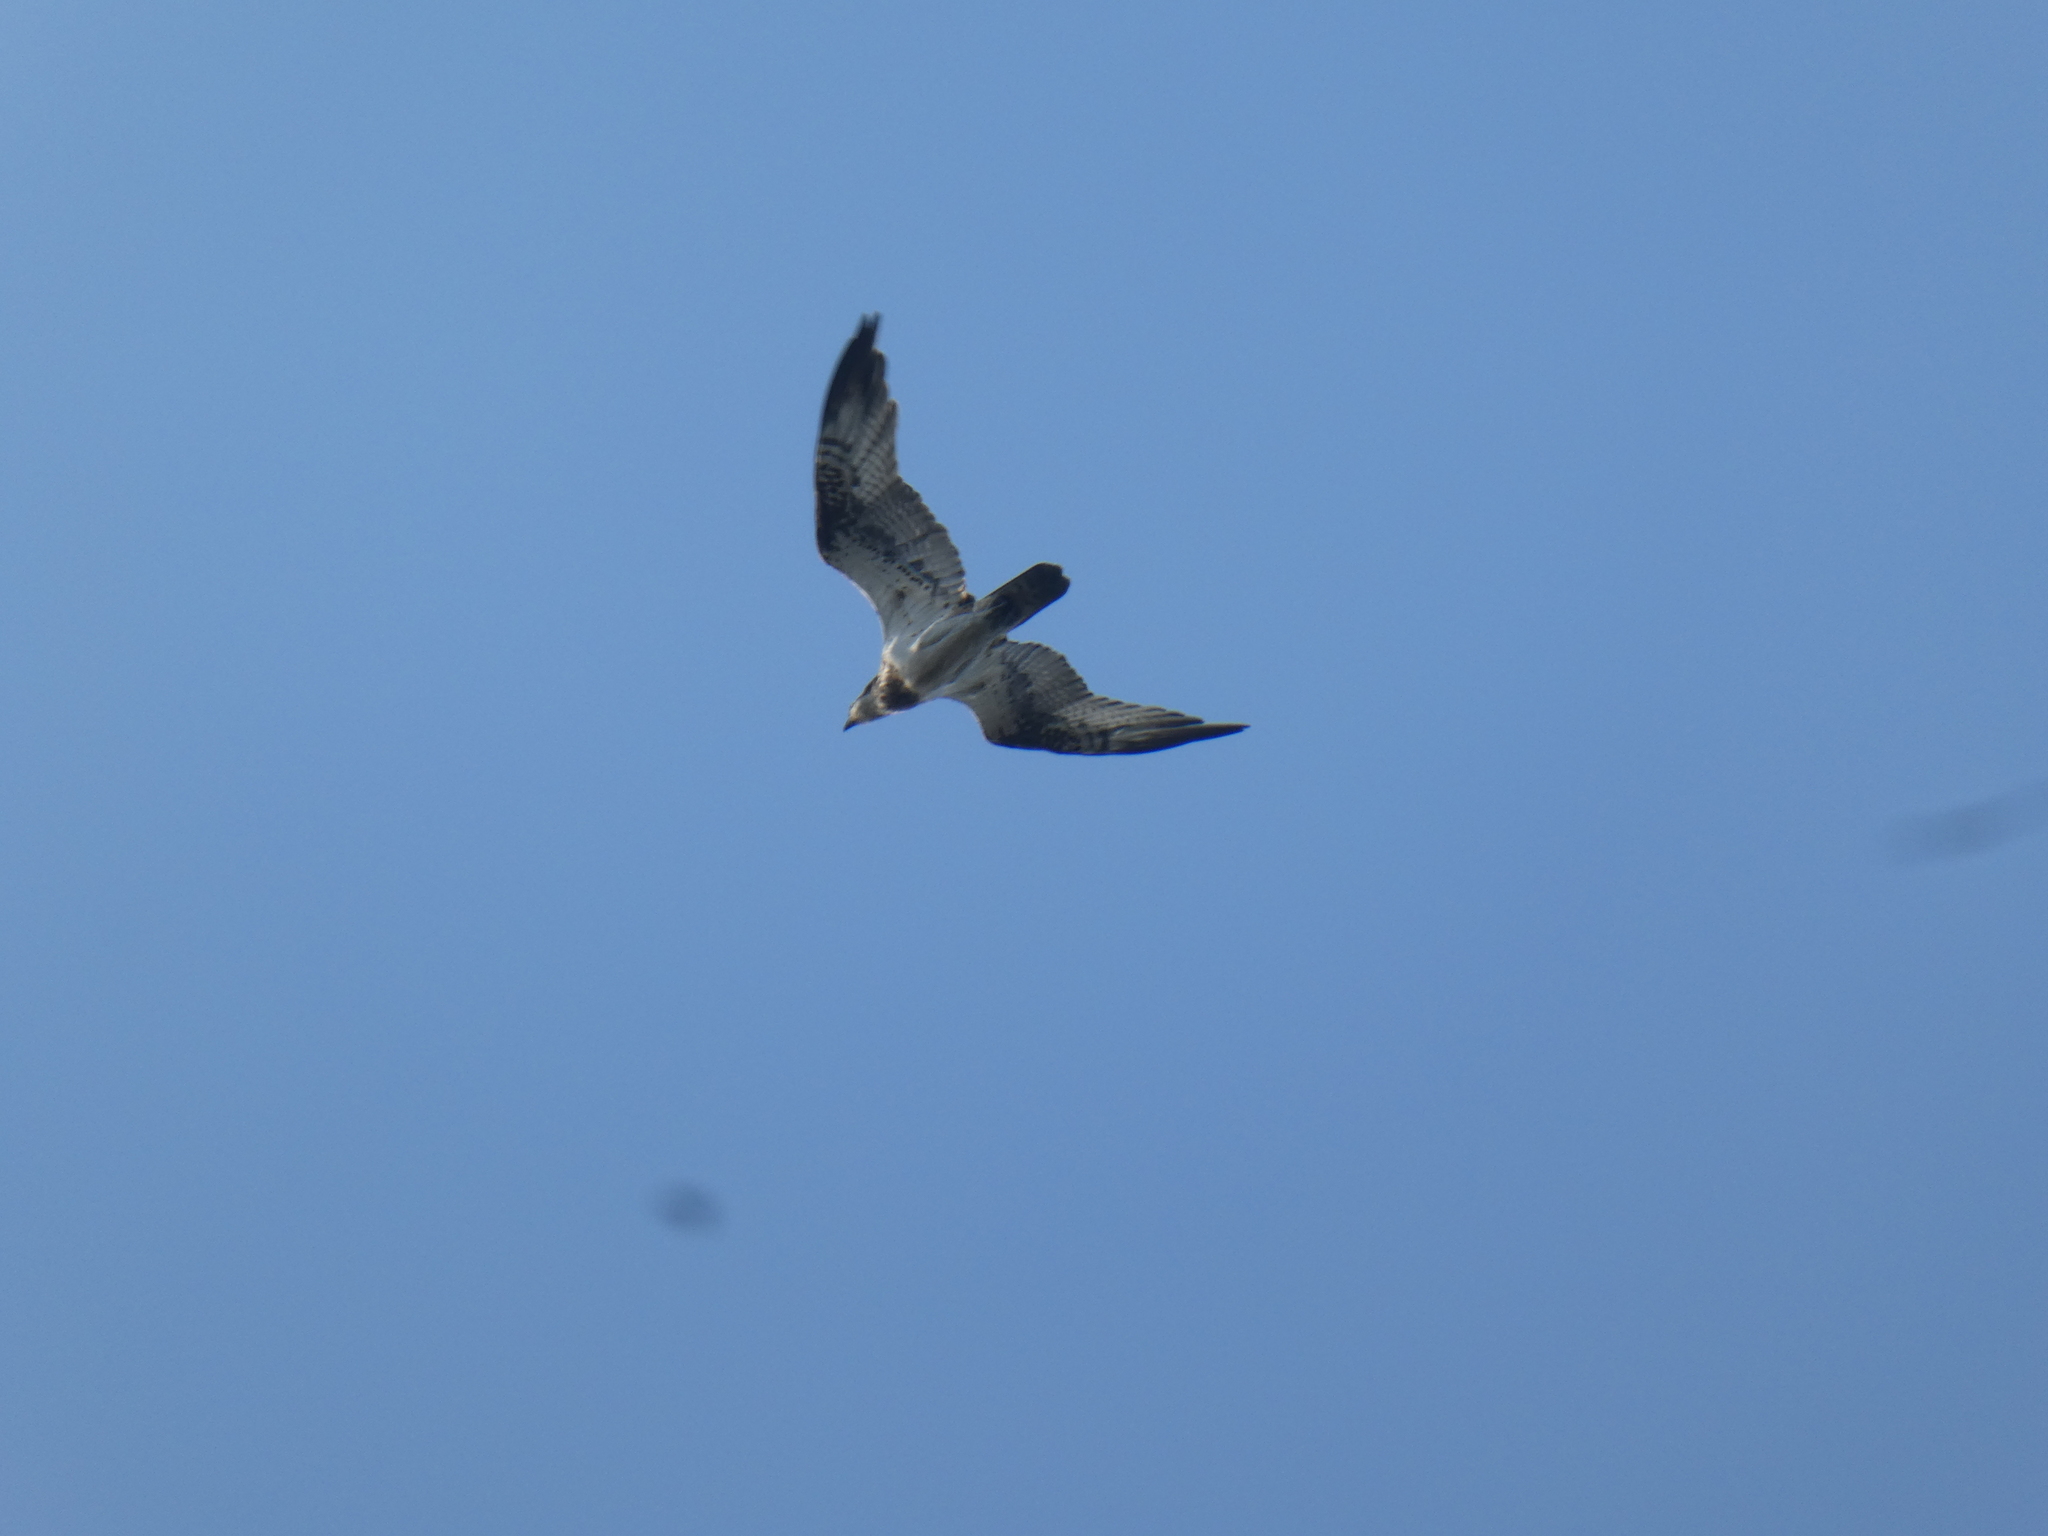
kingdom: Animalia
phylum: Chordata
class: Aves
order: Accipitriformes
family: Pandionidae
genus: Pandion
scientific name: Pandion haliaetus
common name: Osprey
